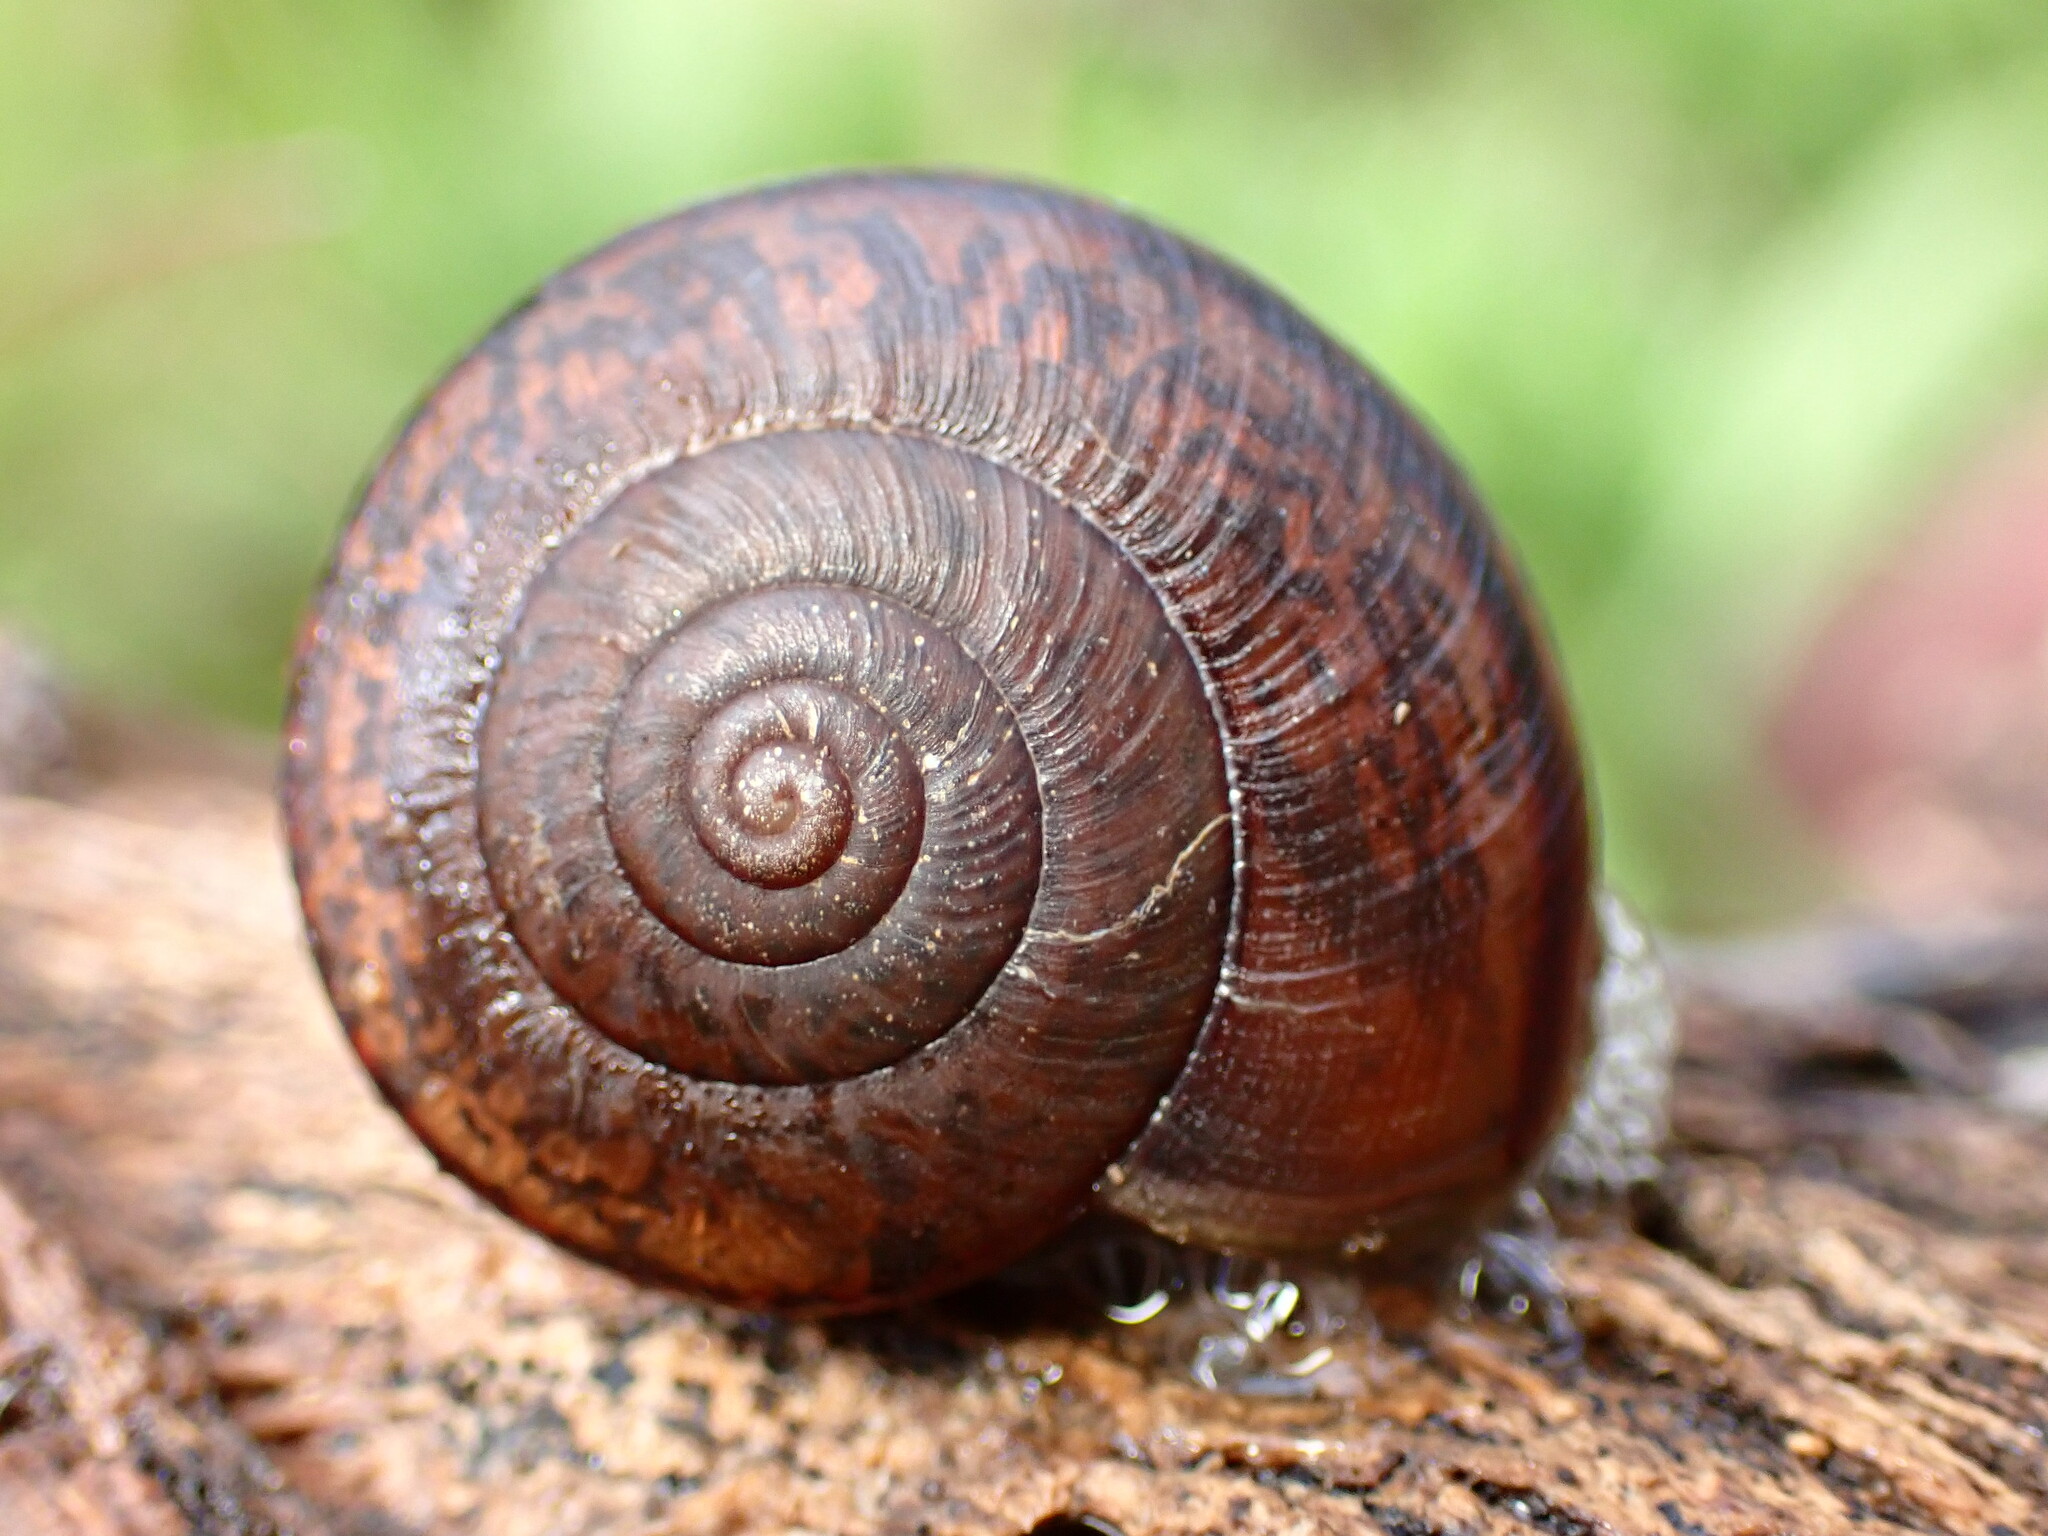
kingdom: Animalia
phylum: Mollusca
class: Gastropoda
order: Stylommatophora
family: Xanthonychidae
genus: Helminthoglypta
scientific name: Helminthoglypta phlyctaena
